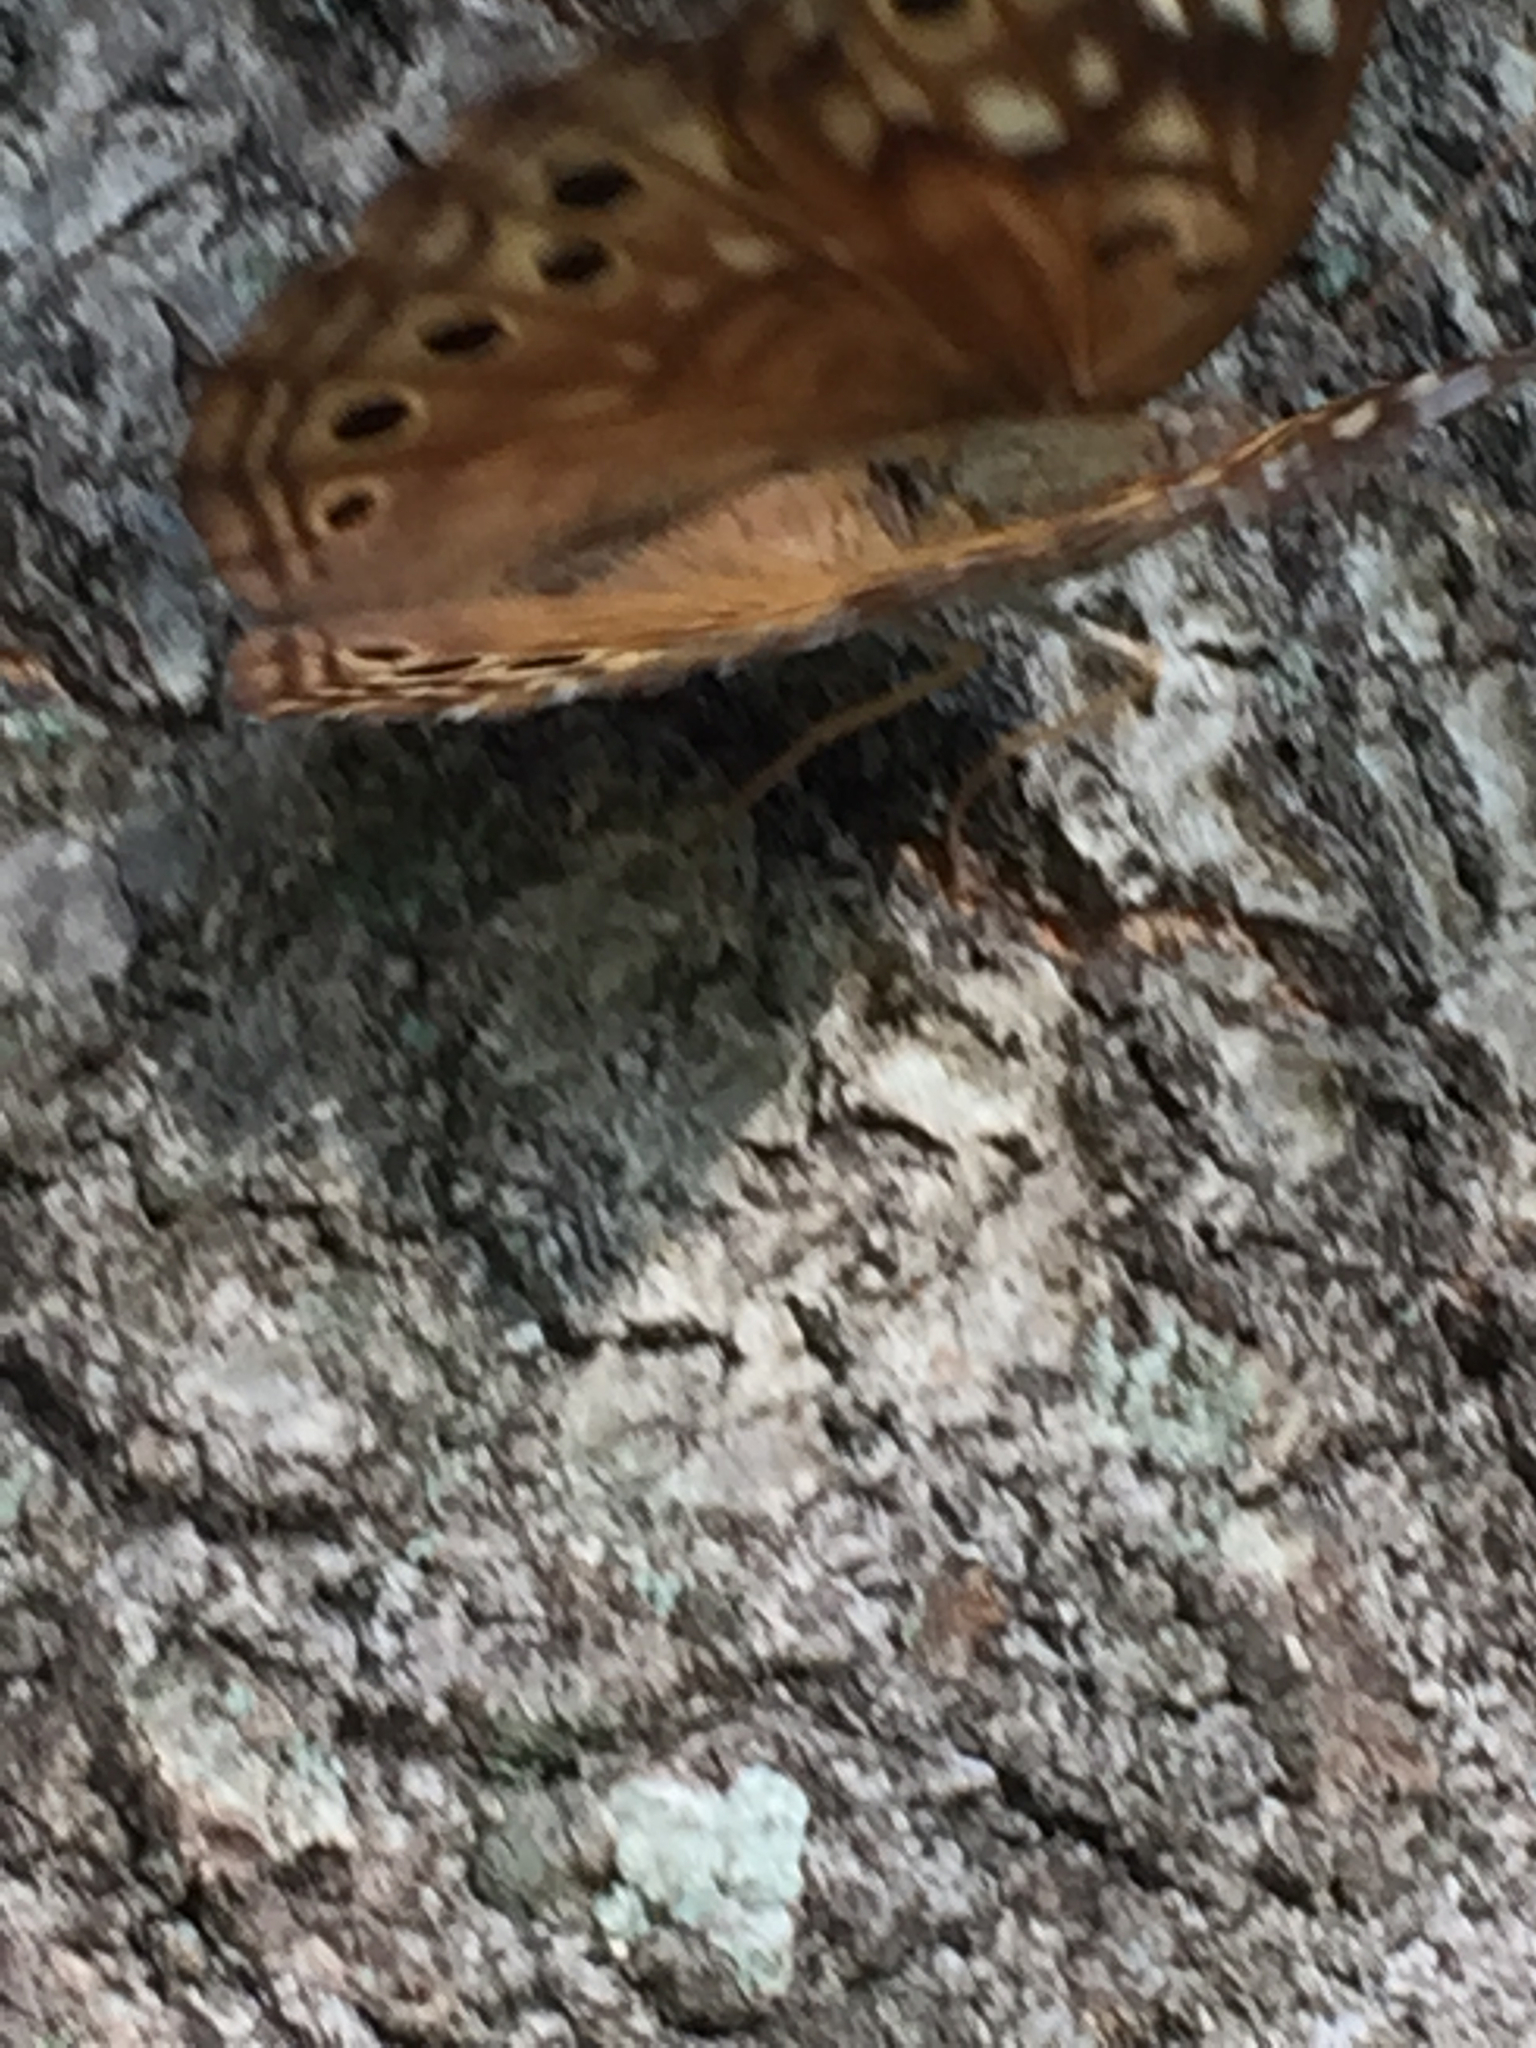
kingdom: Animalia
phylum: Arthropoda
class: Insecta
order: Lepidoptera
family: Nymphalidae
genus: Asterocampa
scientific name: Asterocampa clyton
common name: Tawny emperor
